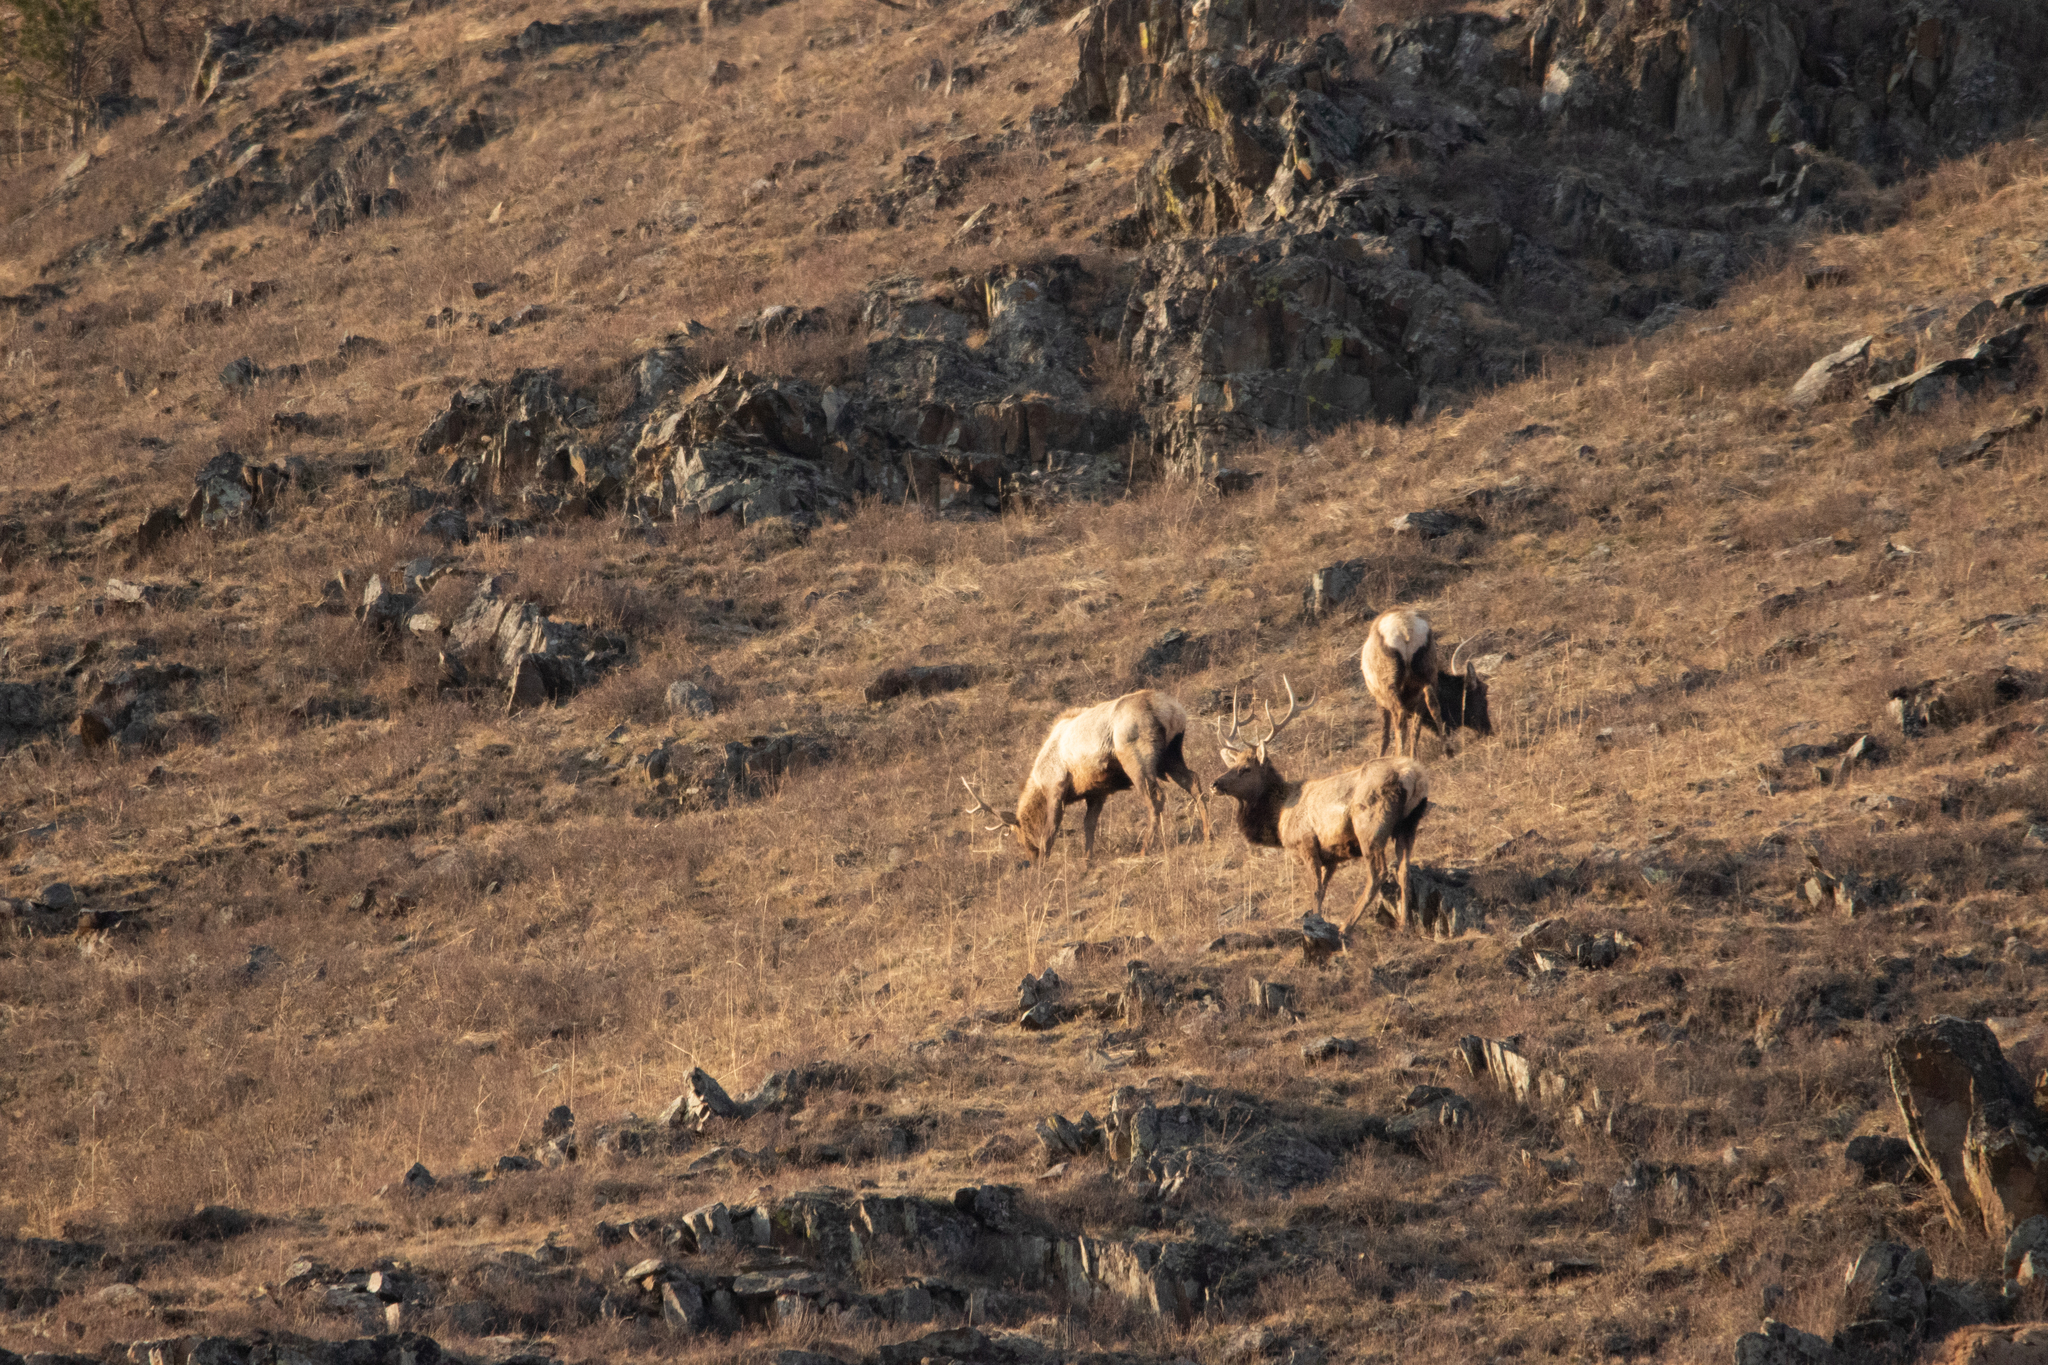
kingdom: Animalia
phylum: Chordata
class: Mammalia
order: Artiodactyla
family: Cervidae
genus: Cervus
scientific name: Cervus elaphus
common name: Red deer
